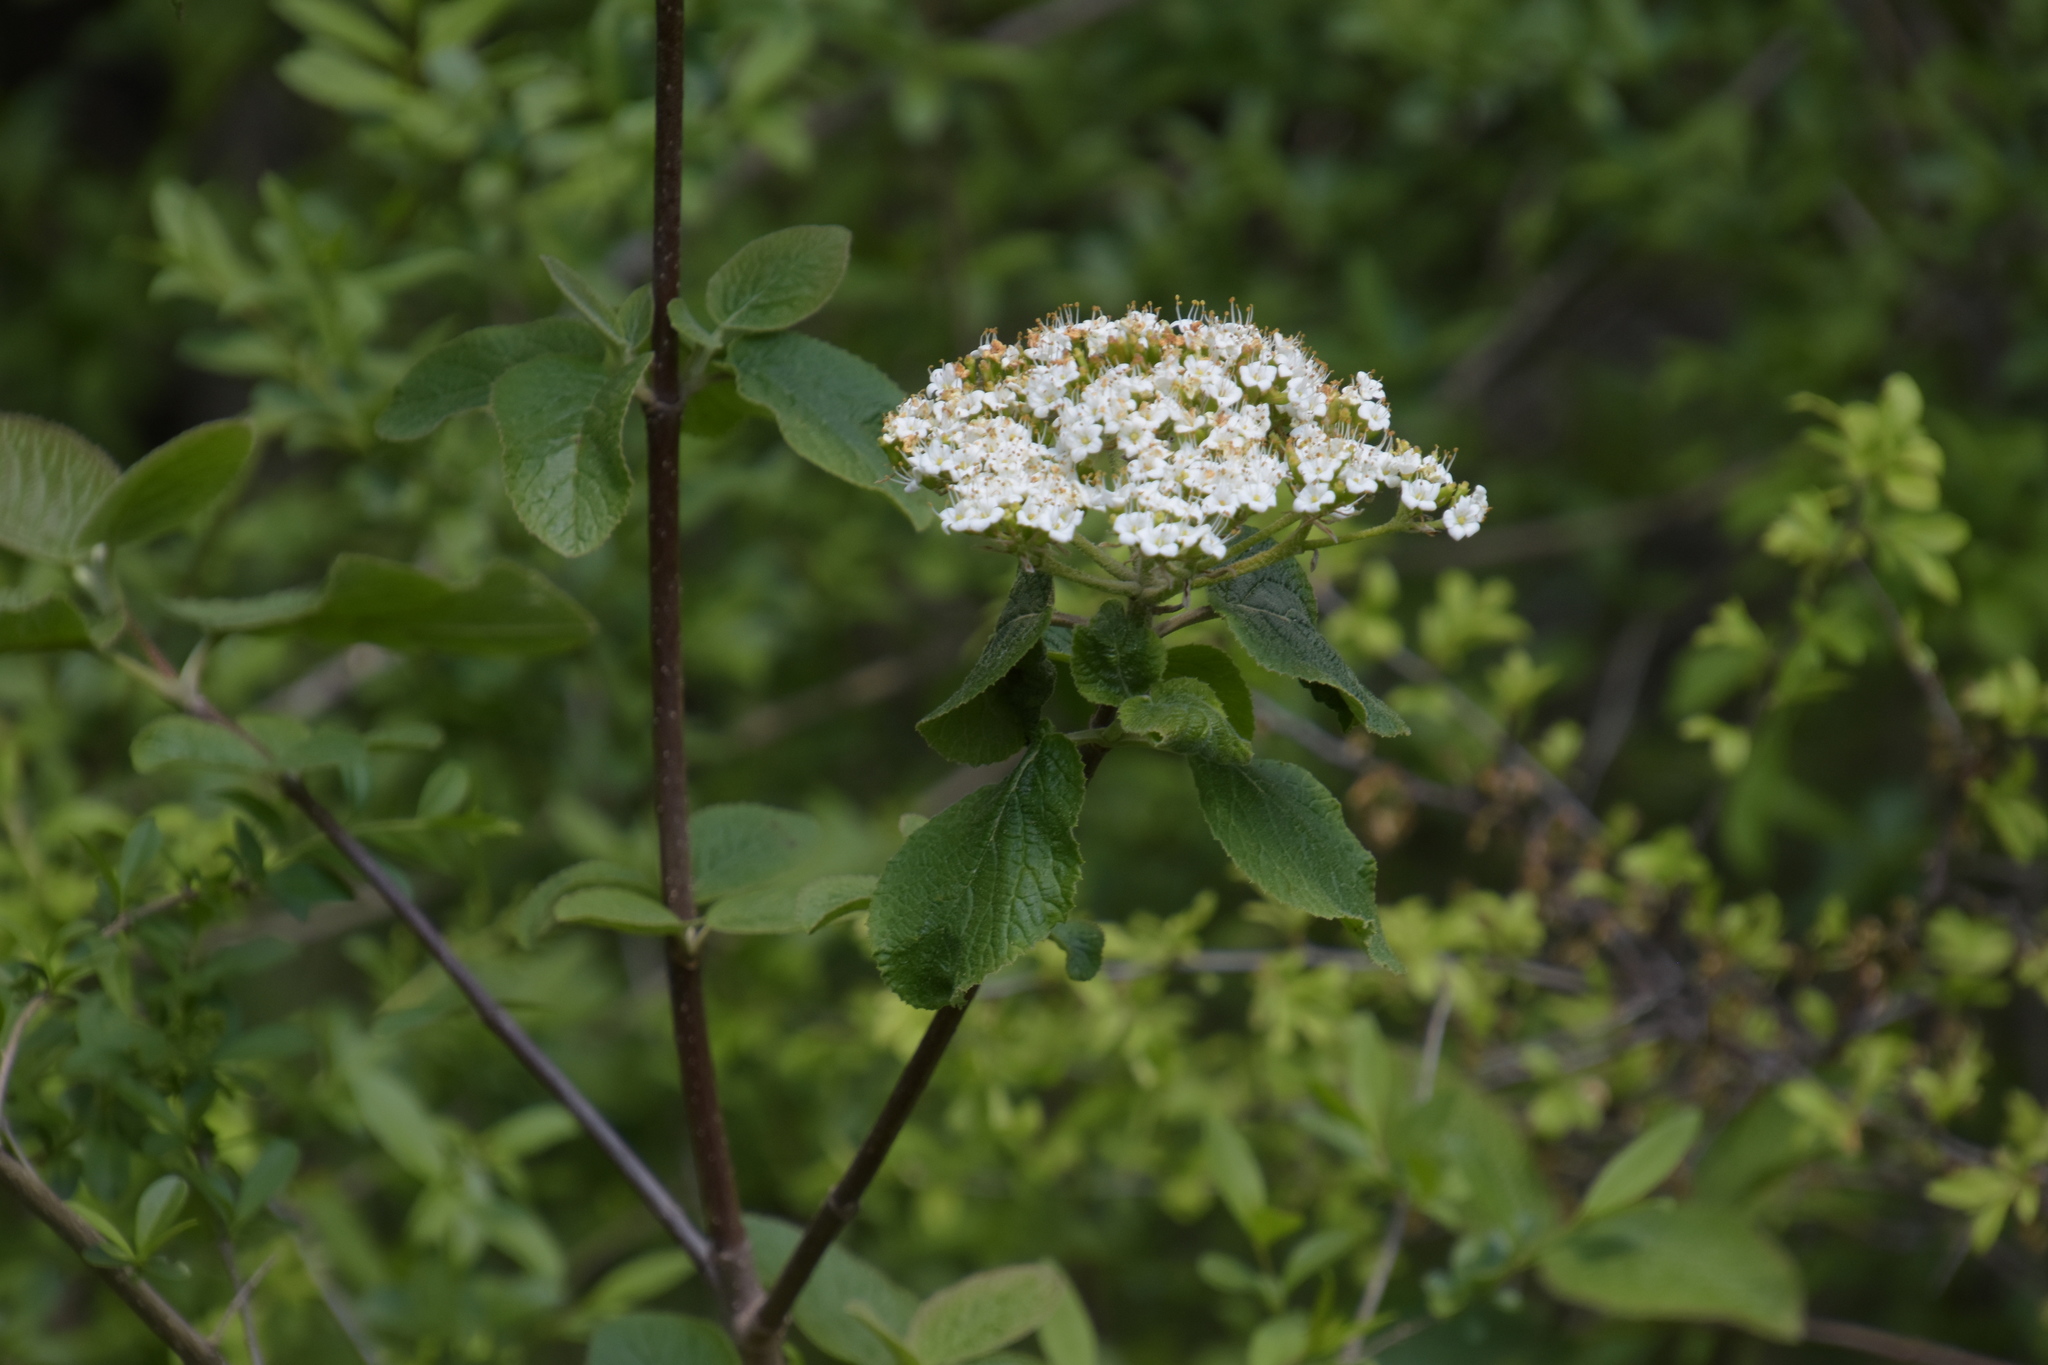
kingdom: Plantae
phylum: Tracheophyta
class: Magnoliopsida
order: Dipsacales
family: Viburnaceae
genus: Viburnum
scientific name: Viburnum lantana
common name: Wayfaring tree
